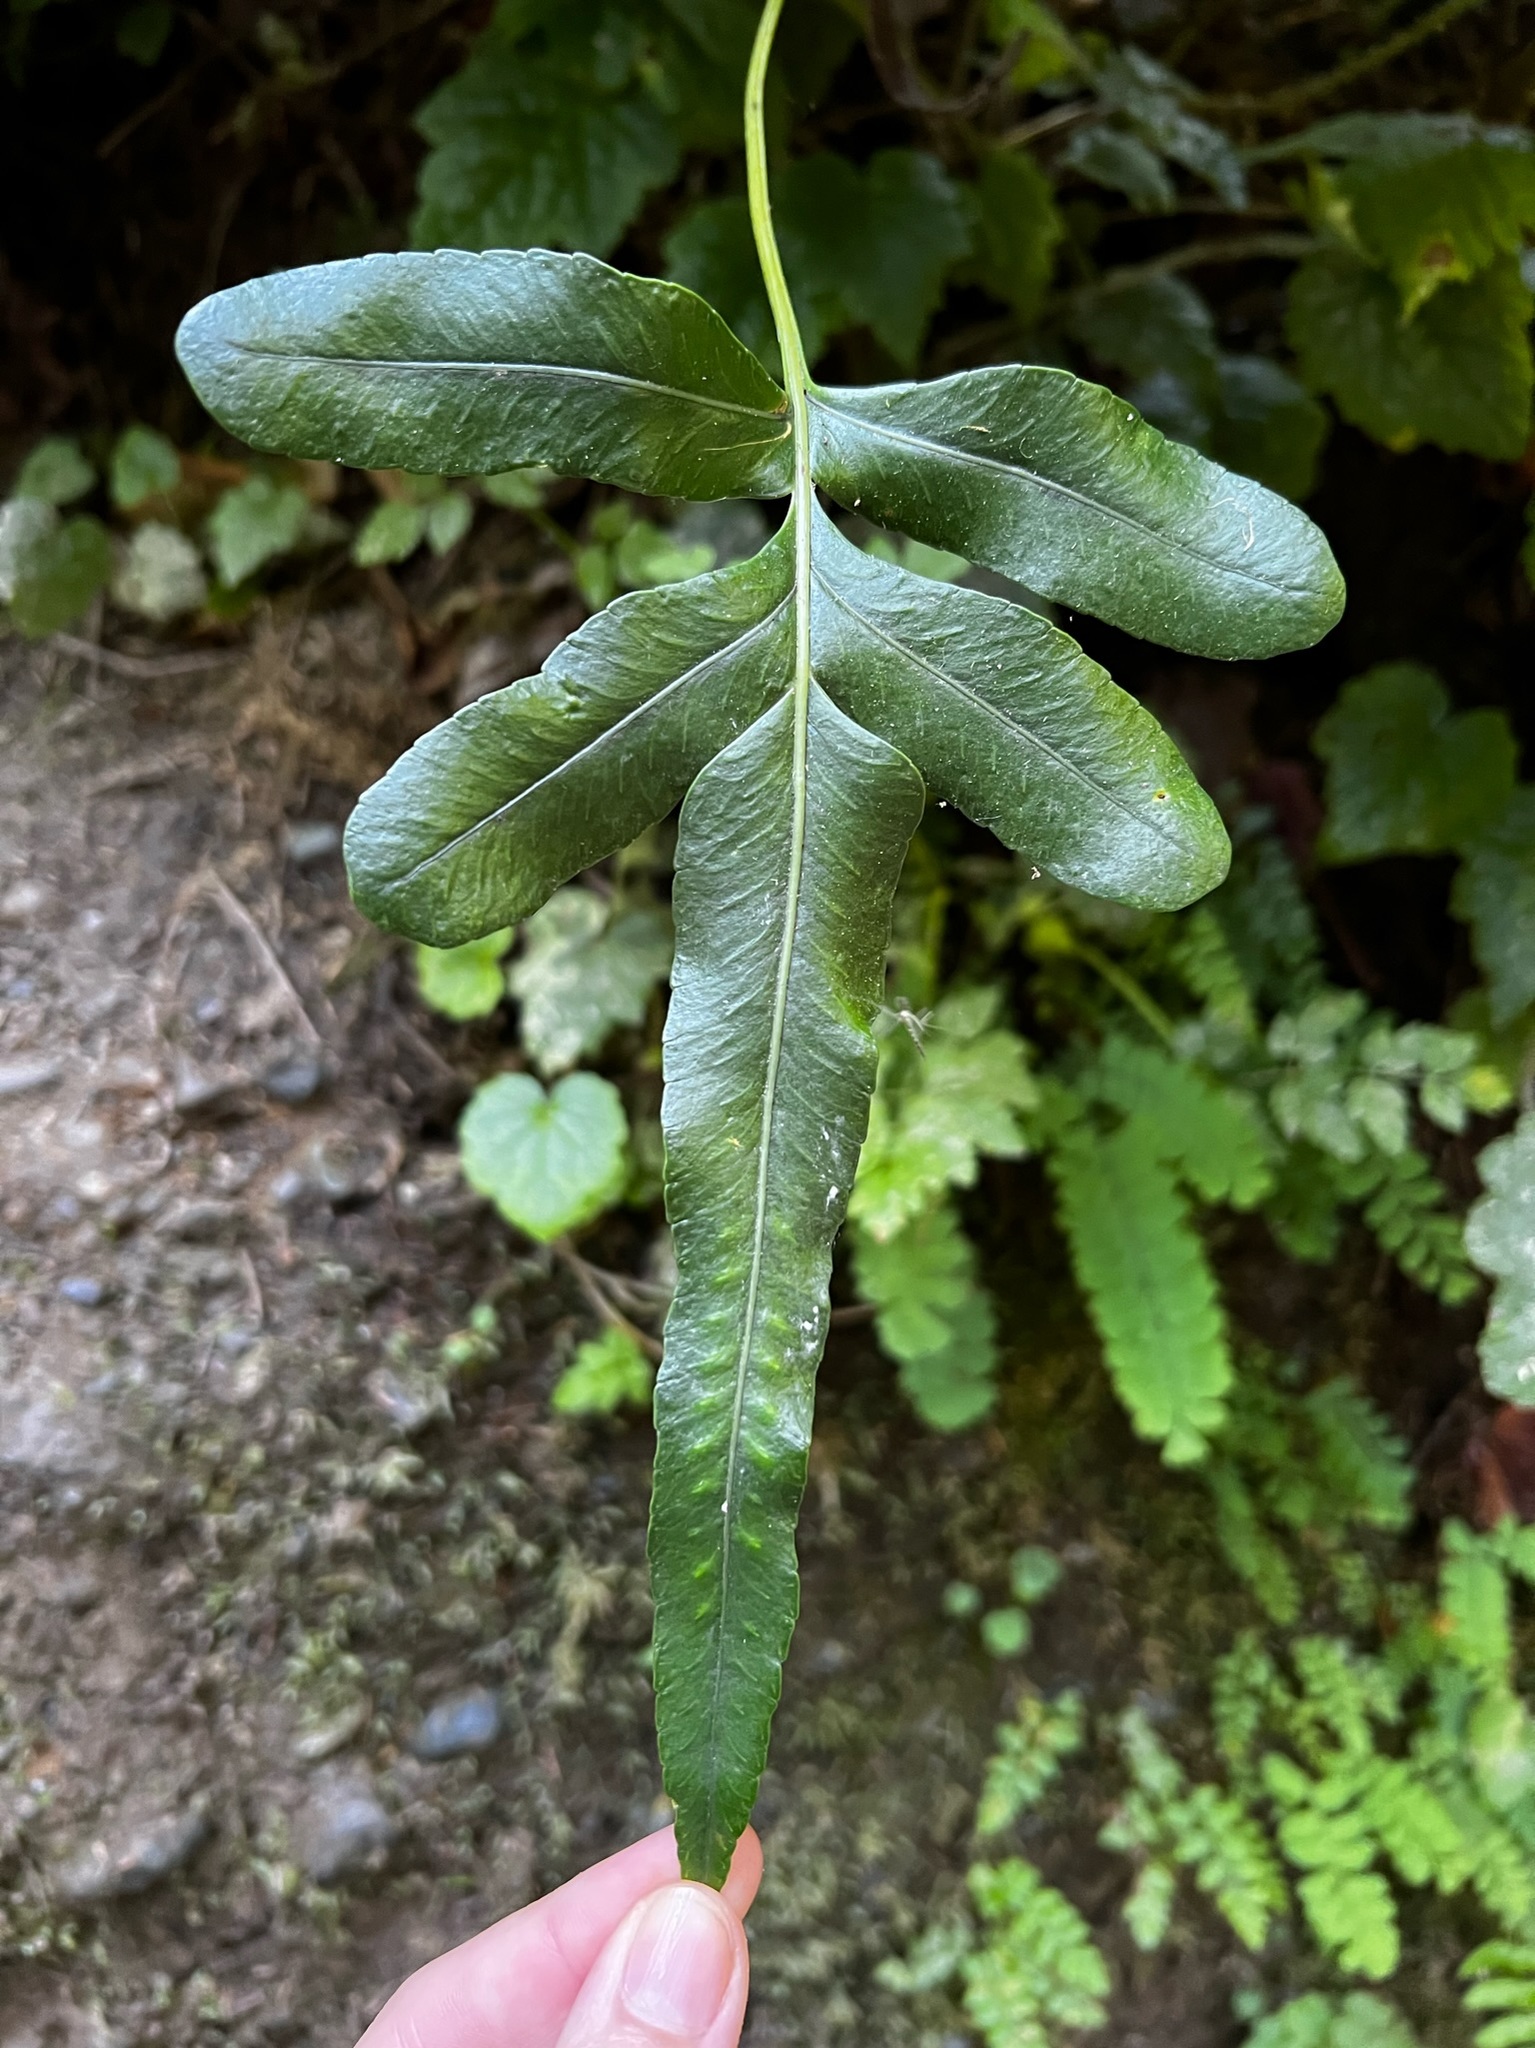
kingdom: Plantae
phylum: Tracheophyta
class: Polypodiopsida
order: Polypodiales
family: Polypodiaceae
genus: Polypodium
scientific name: Polypodium scouleri
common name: Scouler's polypody
